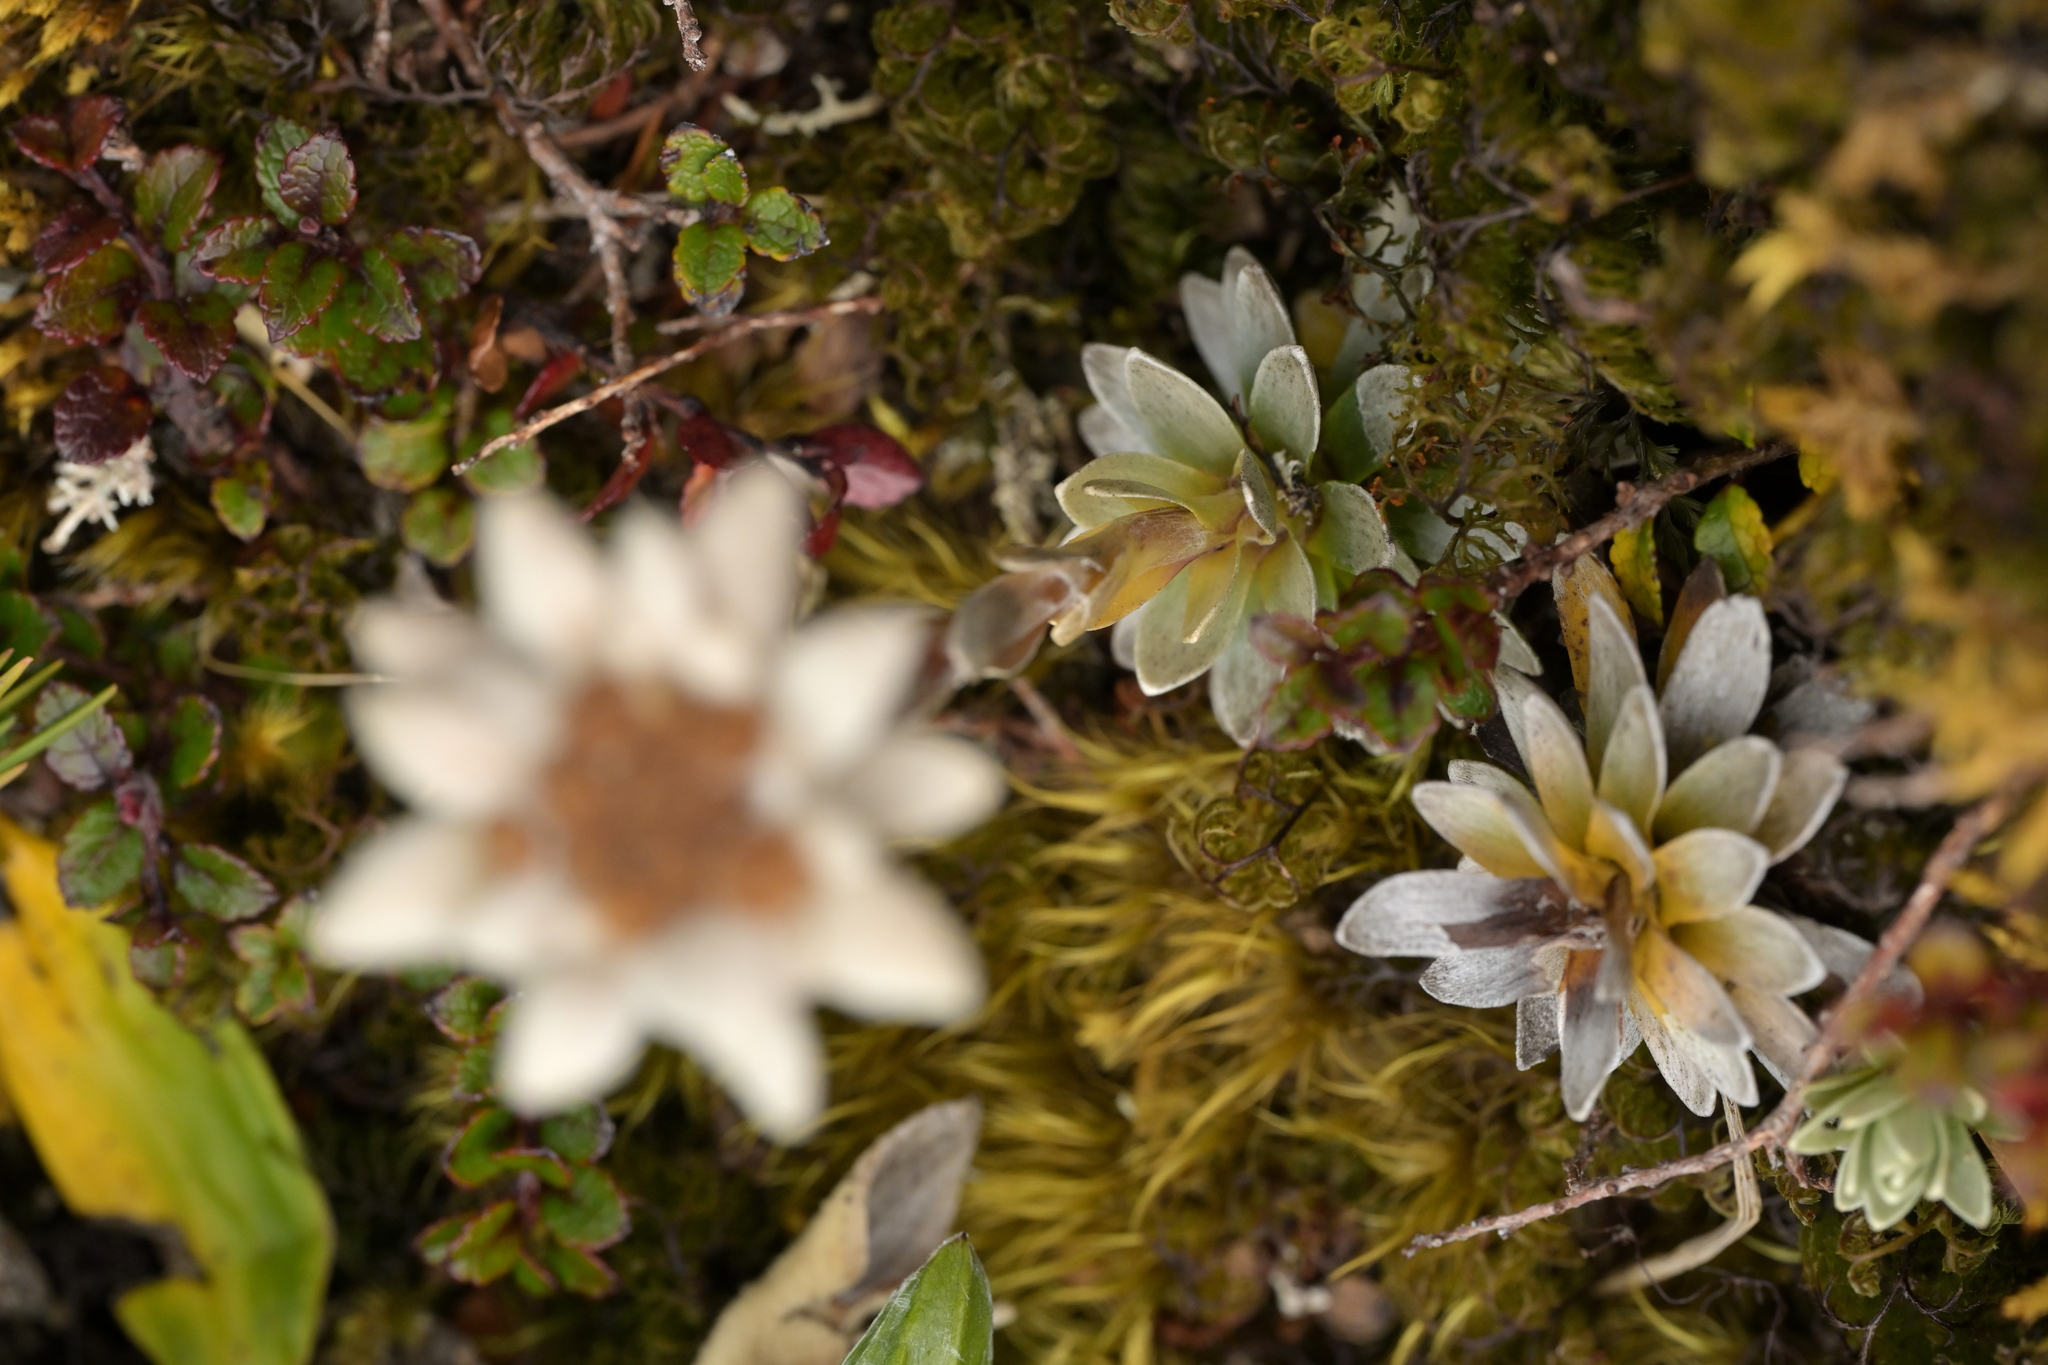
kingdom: Plantae
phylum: Tracheophyta
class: Magnoliopsida
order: Asterales
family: Asteraceae
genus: Leucogenes
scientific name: Leucogenes leontopodium
